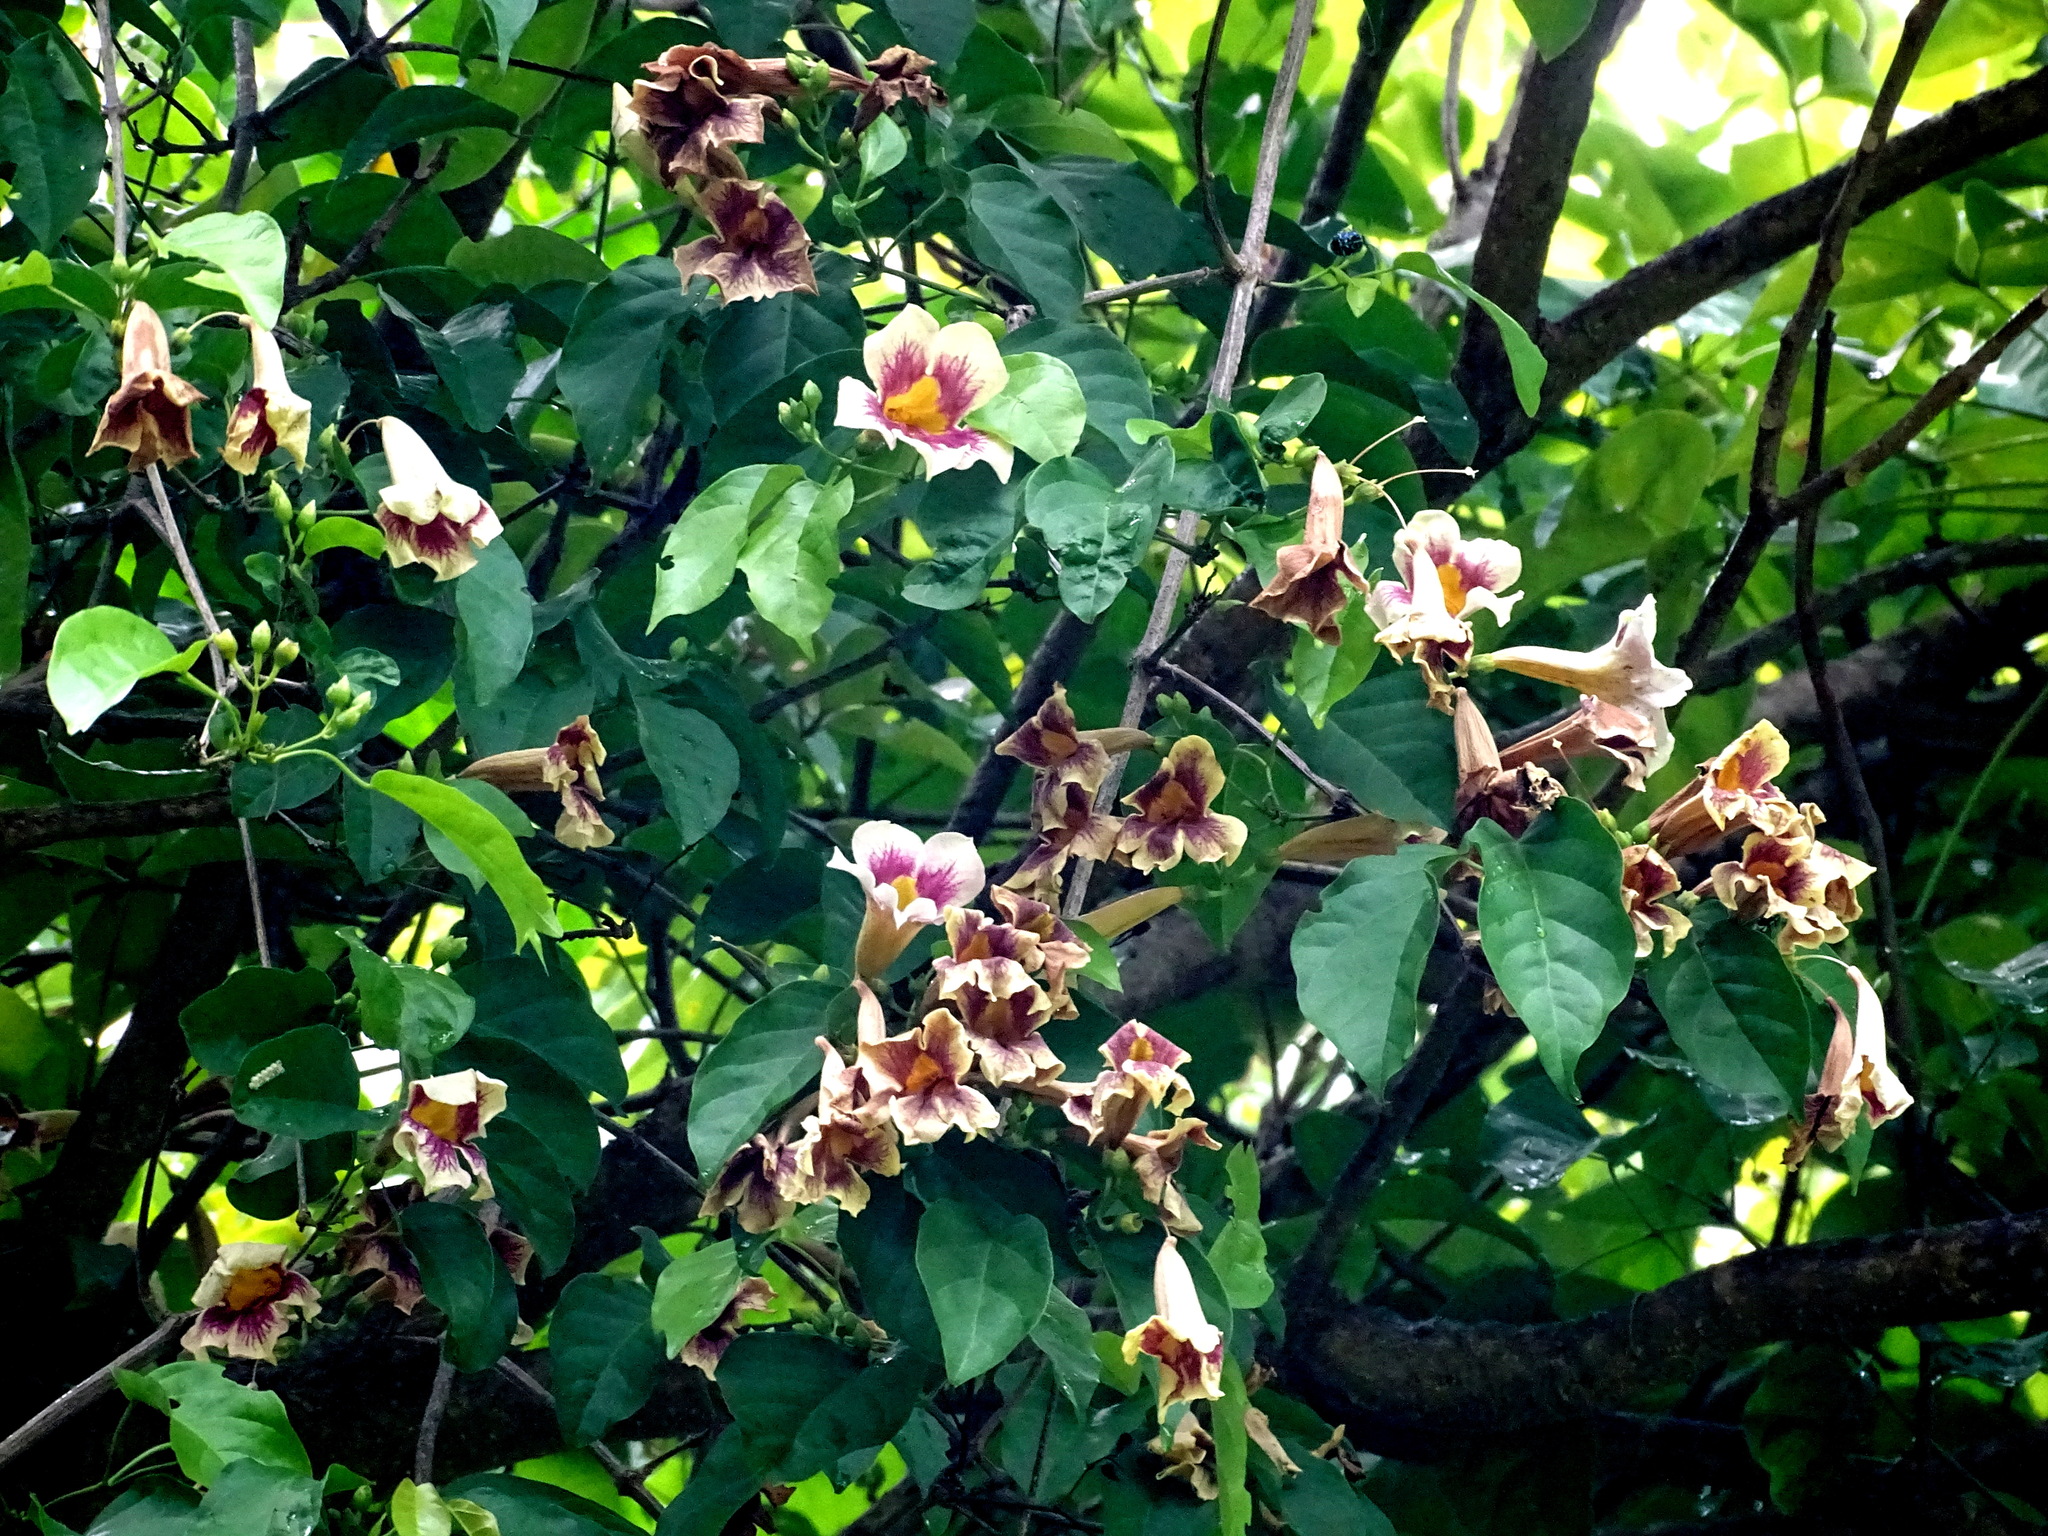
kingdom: Plantae
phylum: Tracheophyta
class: Magnoliopsida
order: Lamiales
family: Bignoniaceae
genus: Bignonia
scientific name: Bignonia potosina
